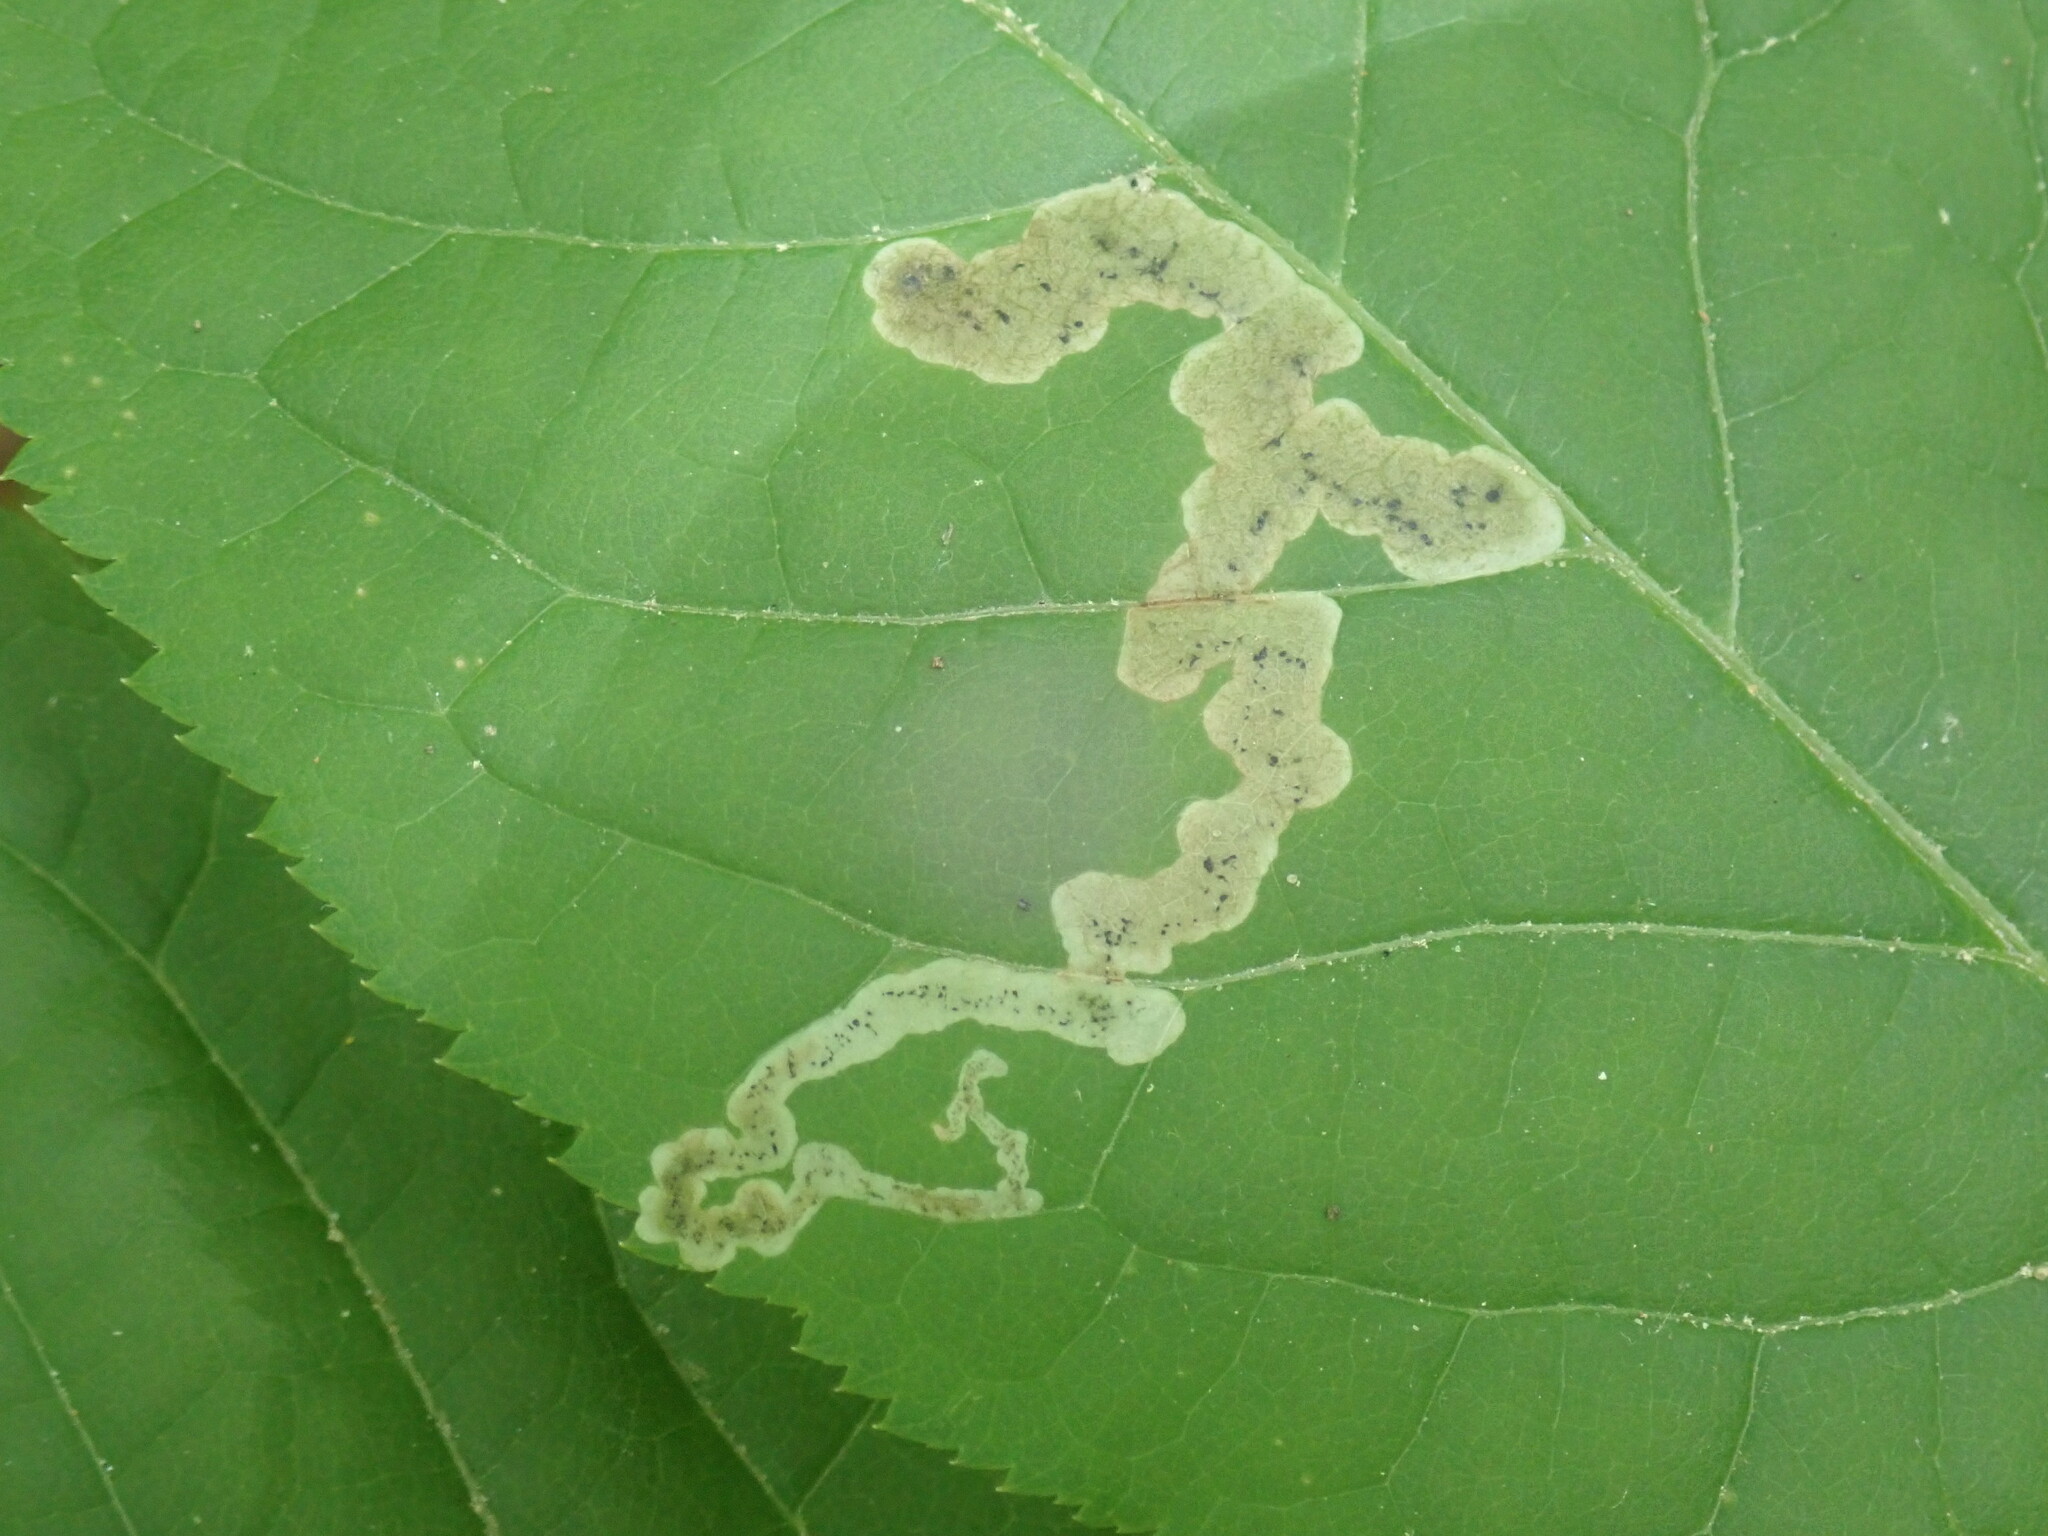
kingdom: Animalia
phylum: Arthropoda
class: Insecta
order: Diptera
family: Agromyzidae
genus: Phytomyza
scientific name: Phytomyza aralivora
